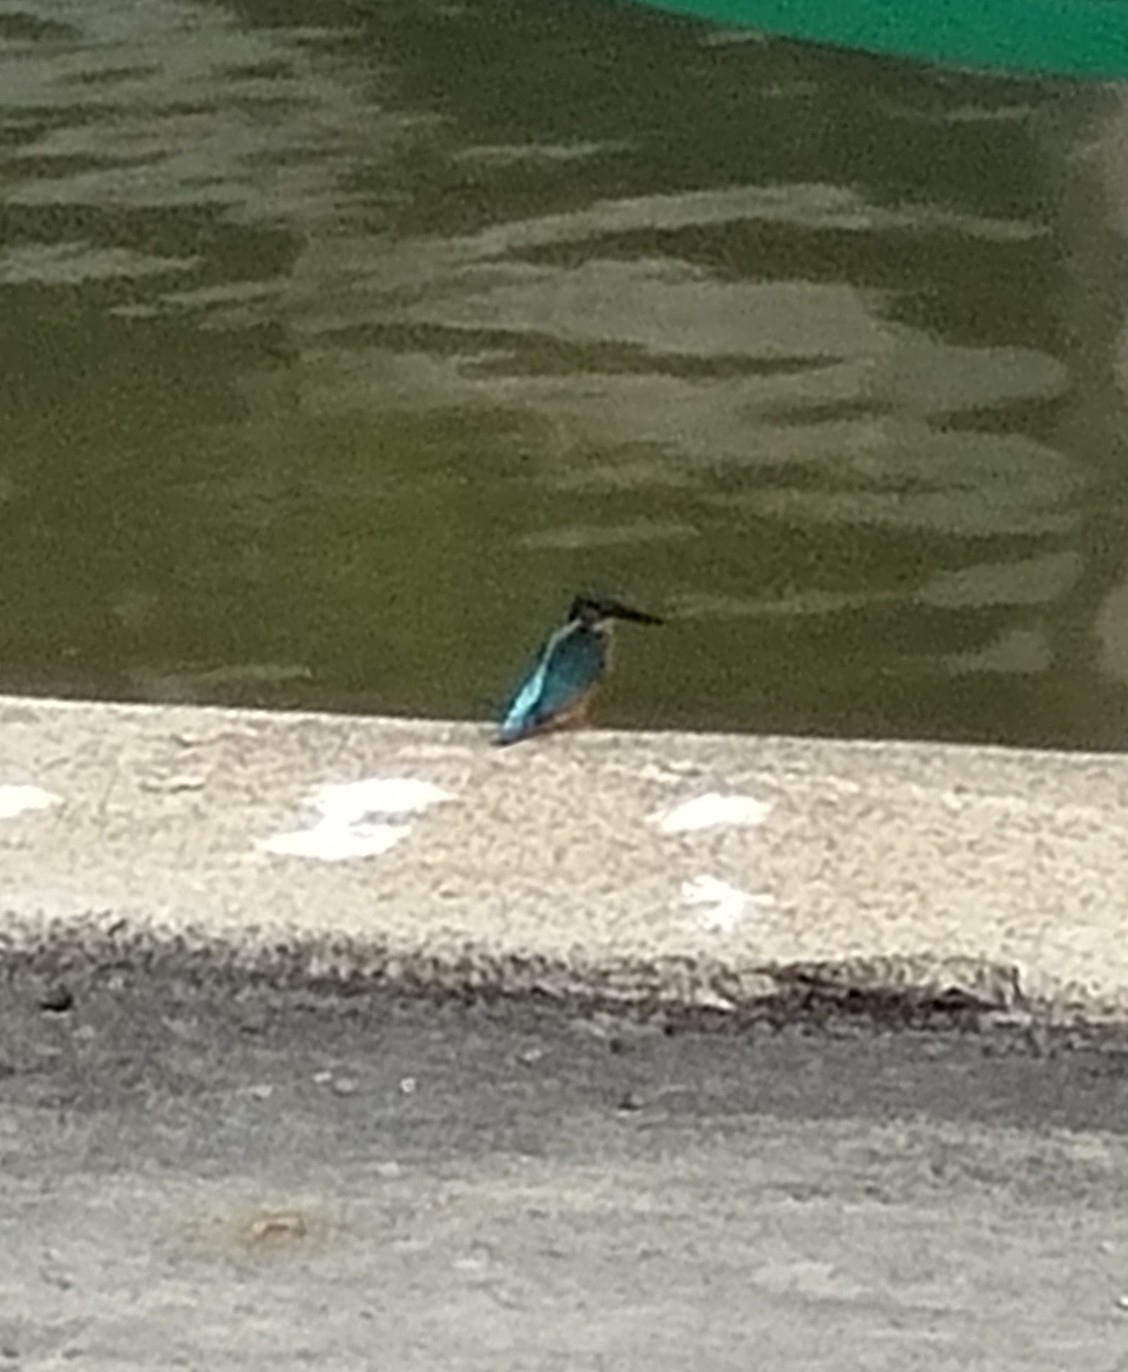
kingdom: Animalia
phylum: Chordata
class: Aves
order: Coraciiformes
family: Alcedinidae
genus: Alcedo
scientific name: Alcedo atthis
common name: Common kingfisher
